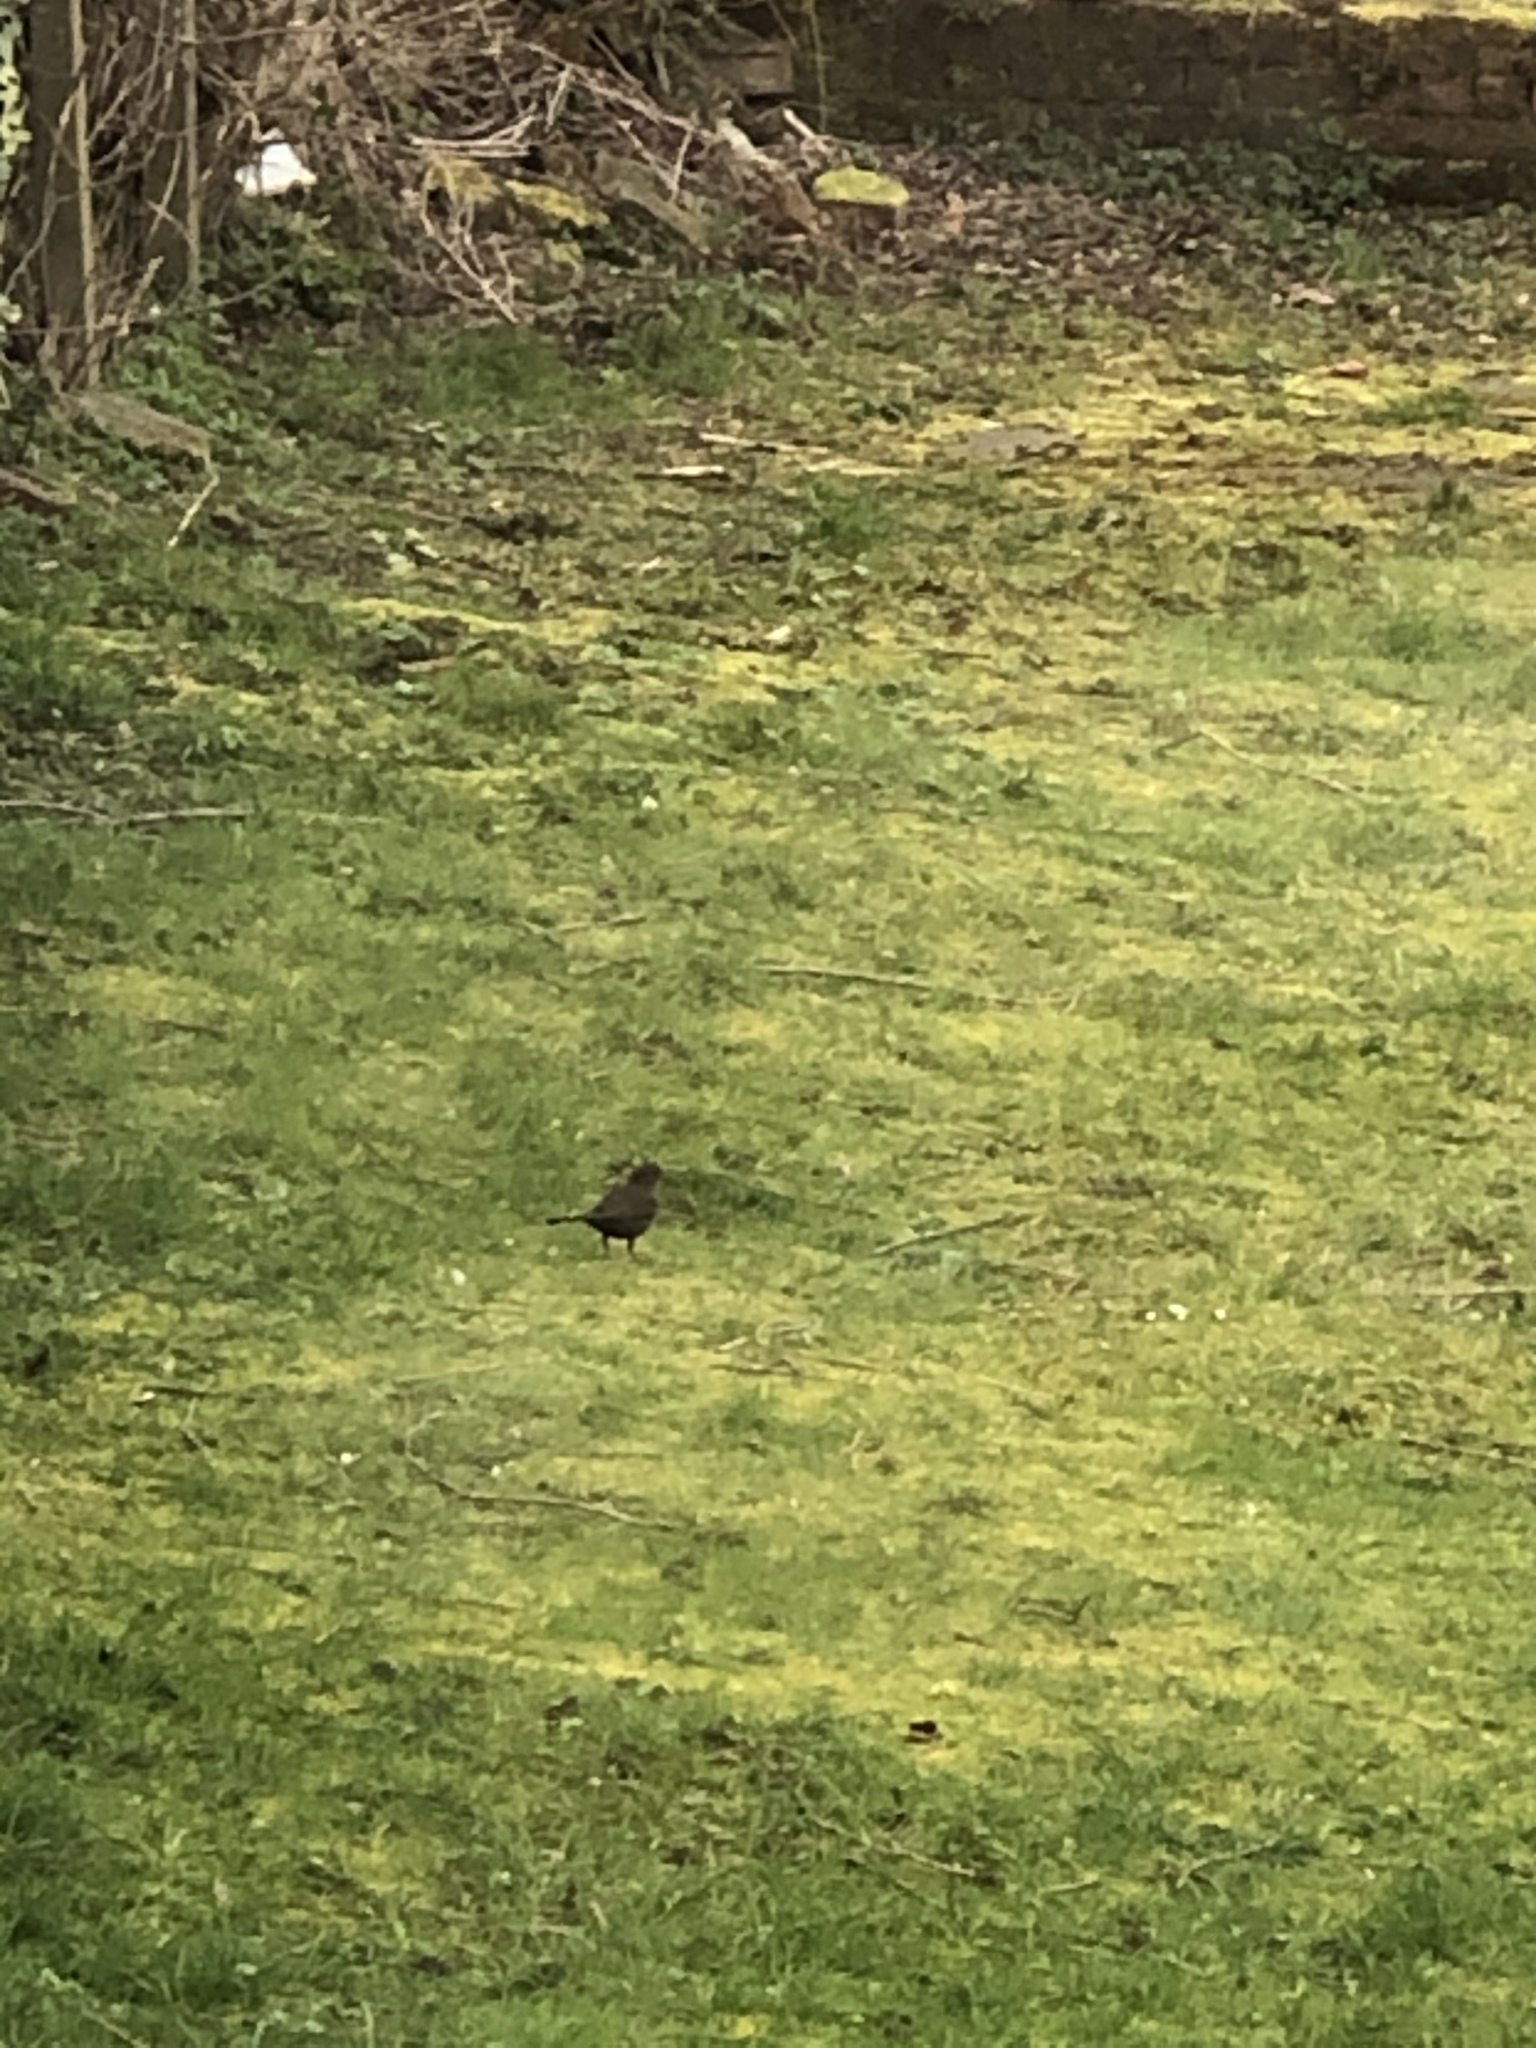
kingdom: Animalia
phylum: Chordata
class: Aves
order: Passeriformes
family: Turdidae
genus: Turdus
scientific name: Turdus merula
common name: Common blackbird
